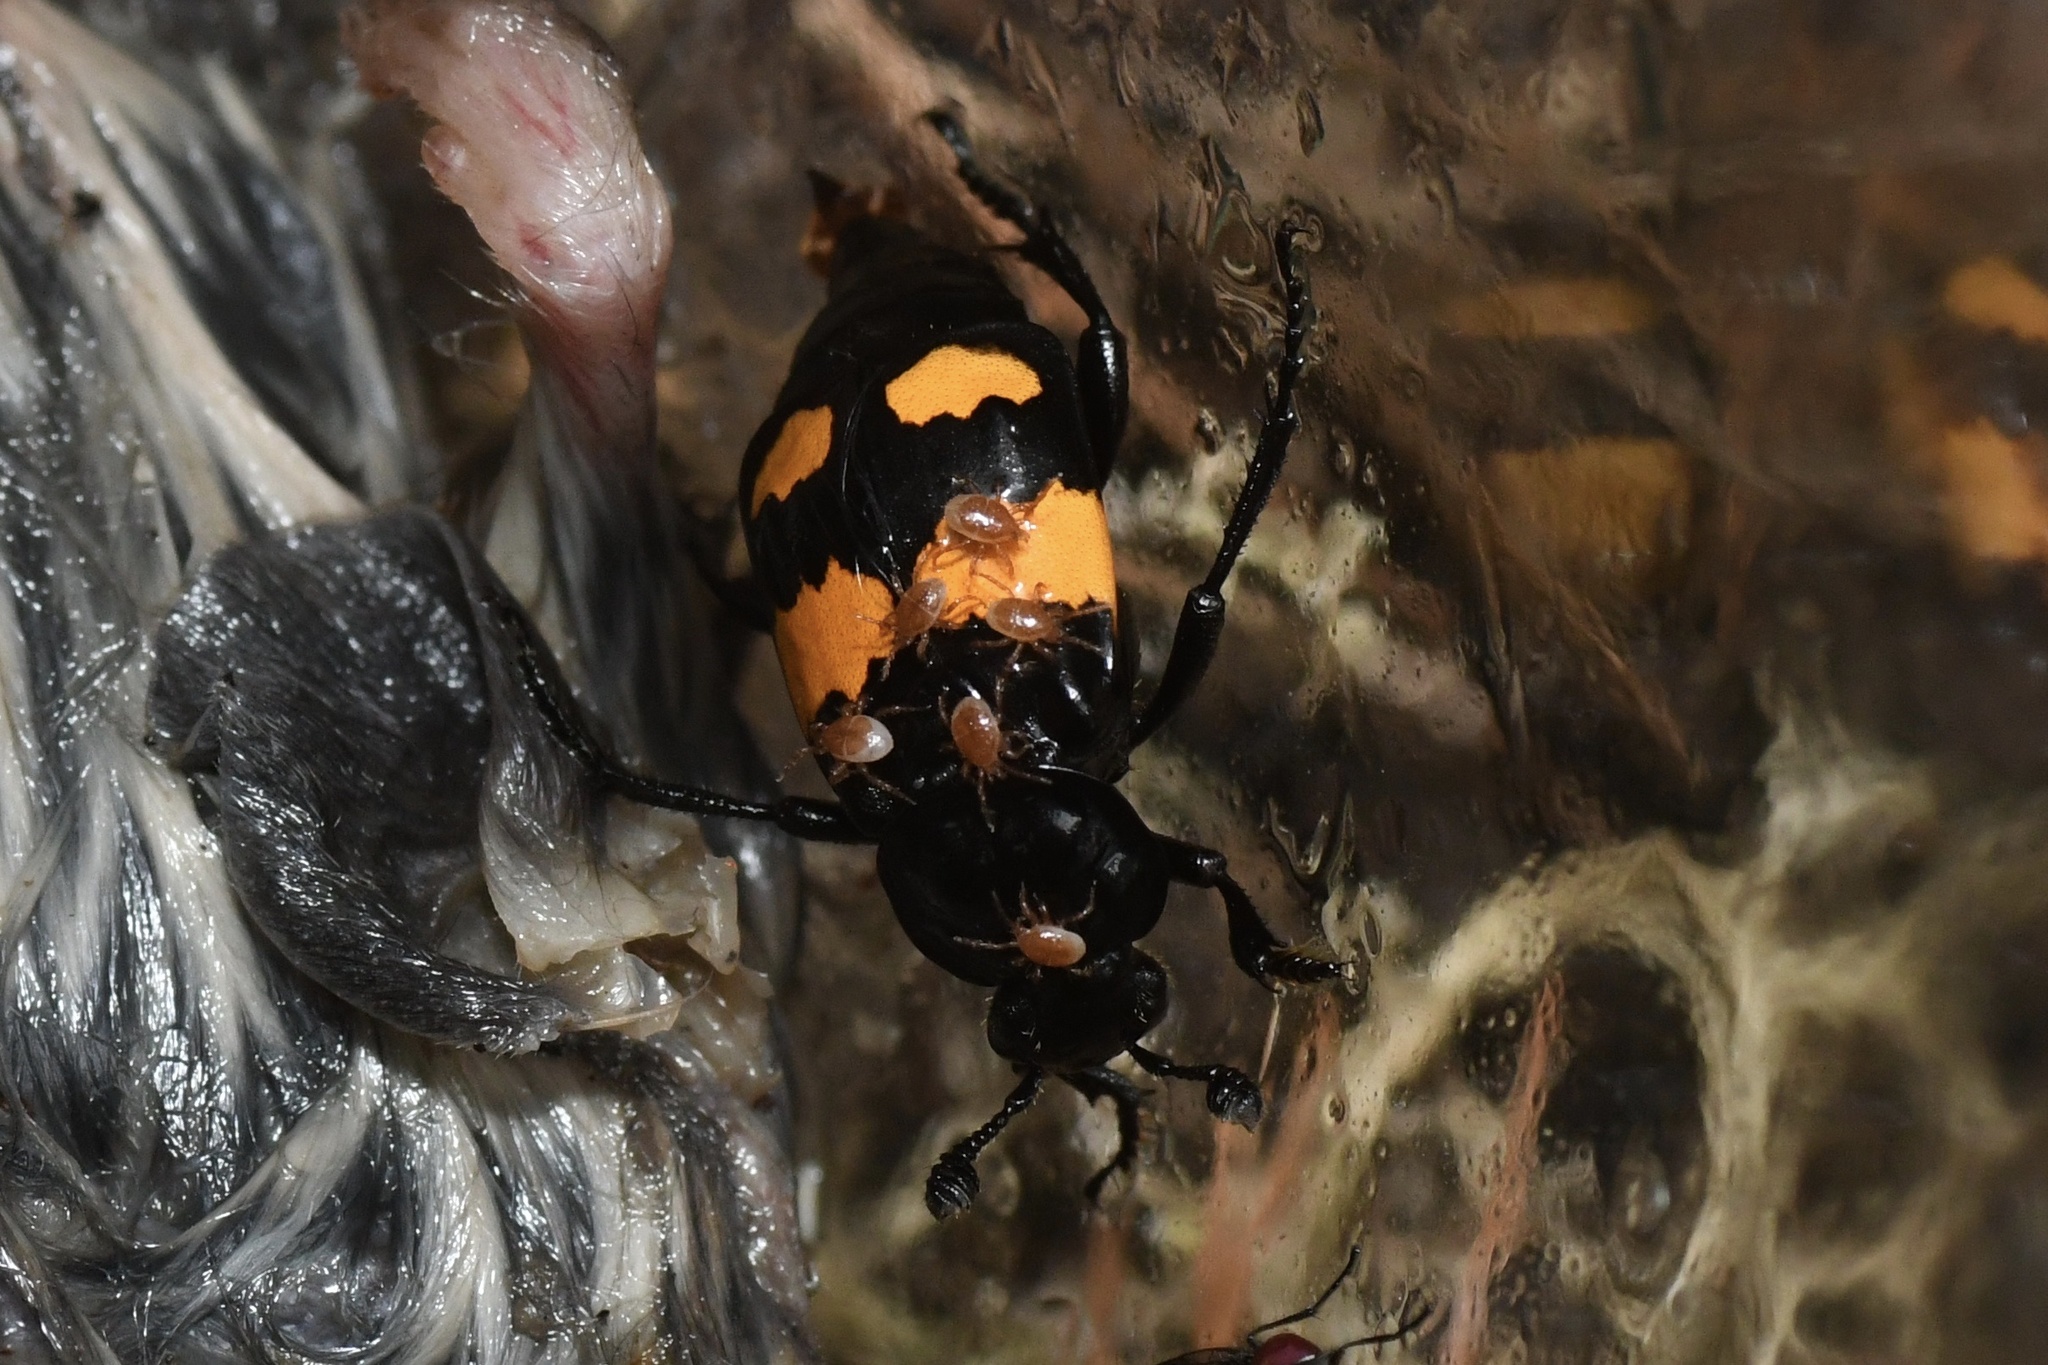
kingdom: Animalia
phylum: Arthropoda
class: Insecta
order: Coleoptera
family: Staphylinidae
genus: Nicrophorus
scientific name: Nicrophorus defodiens
